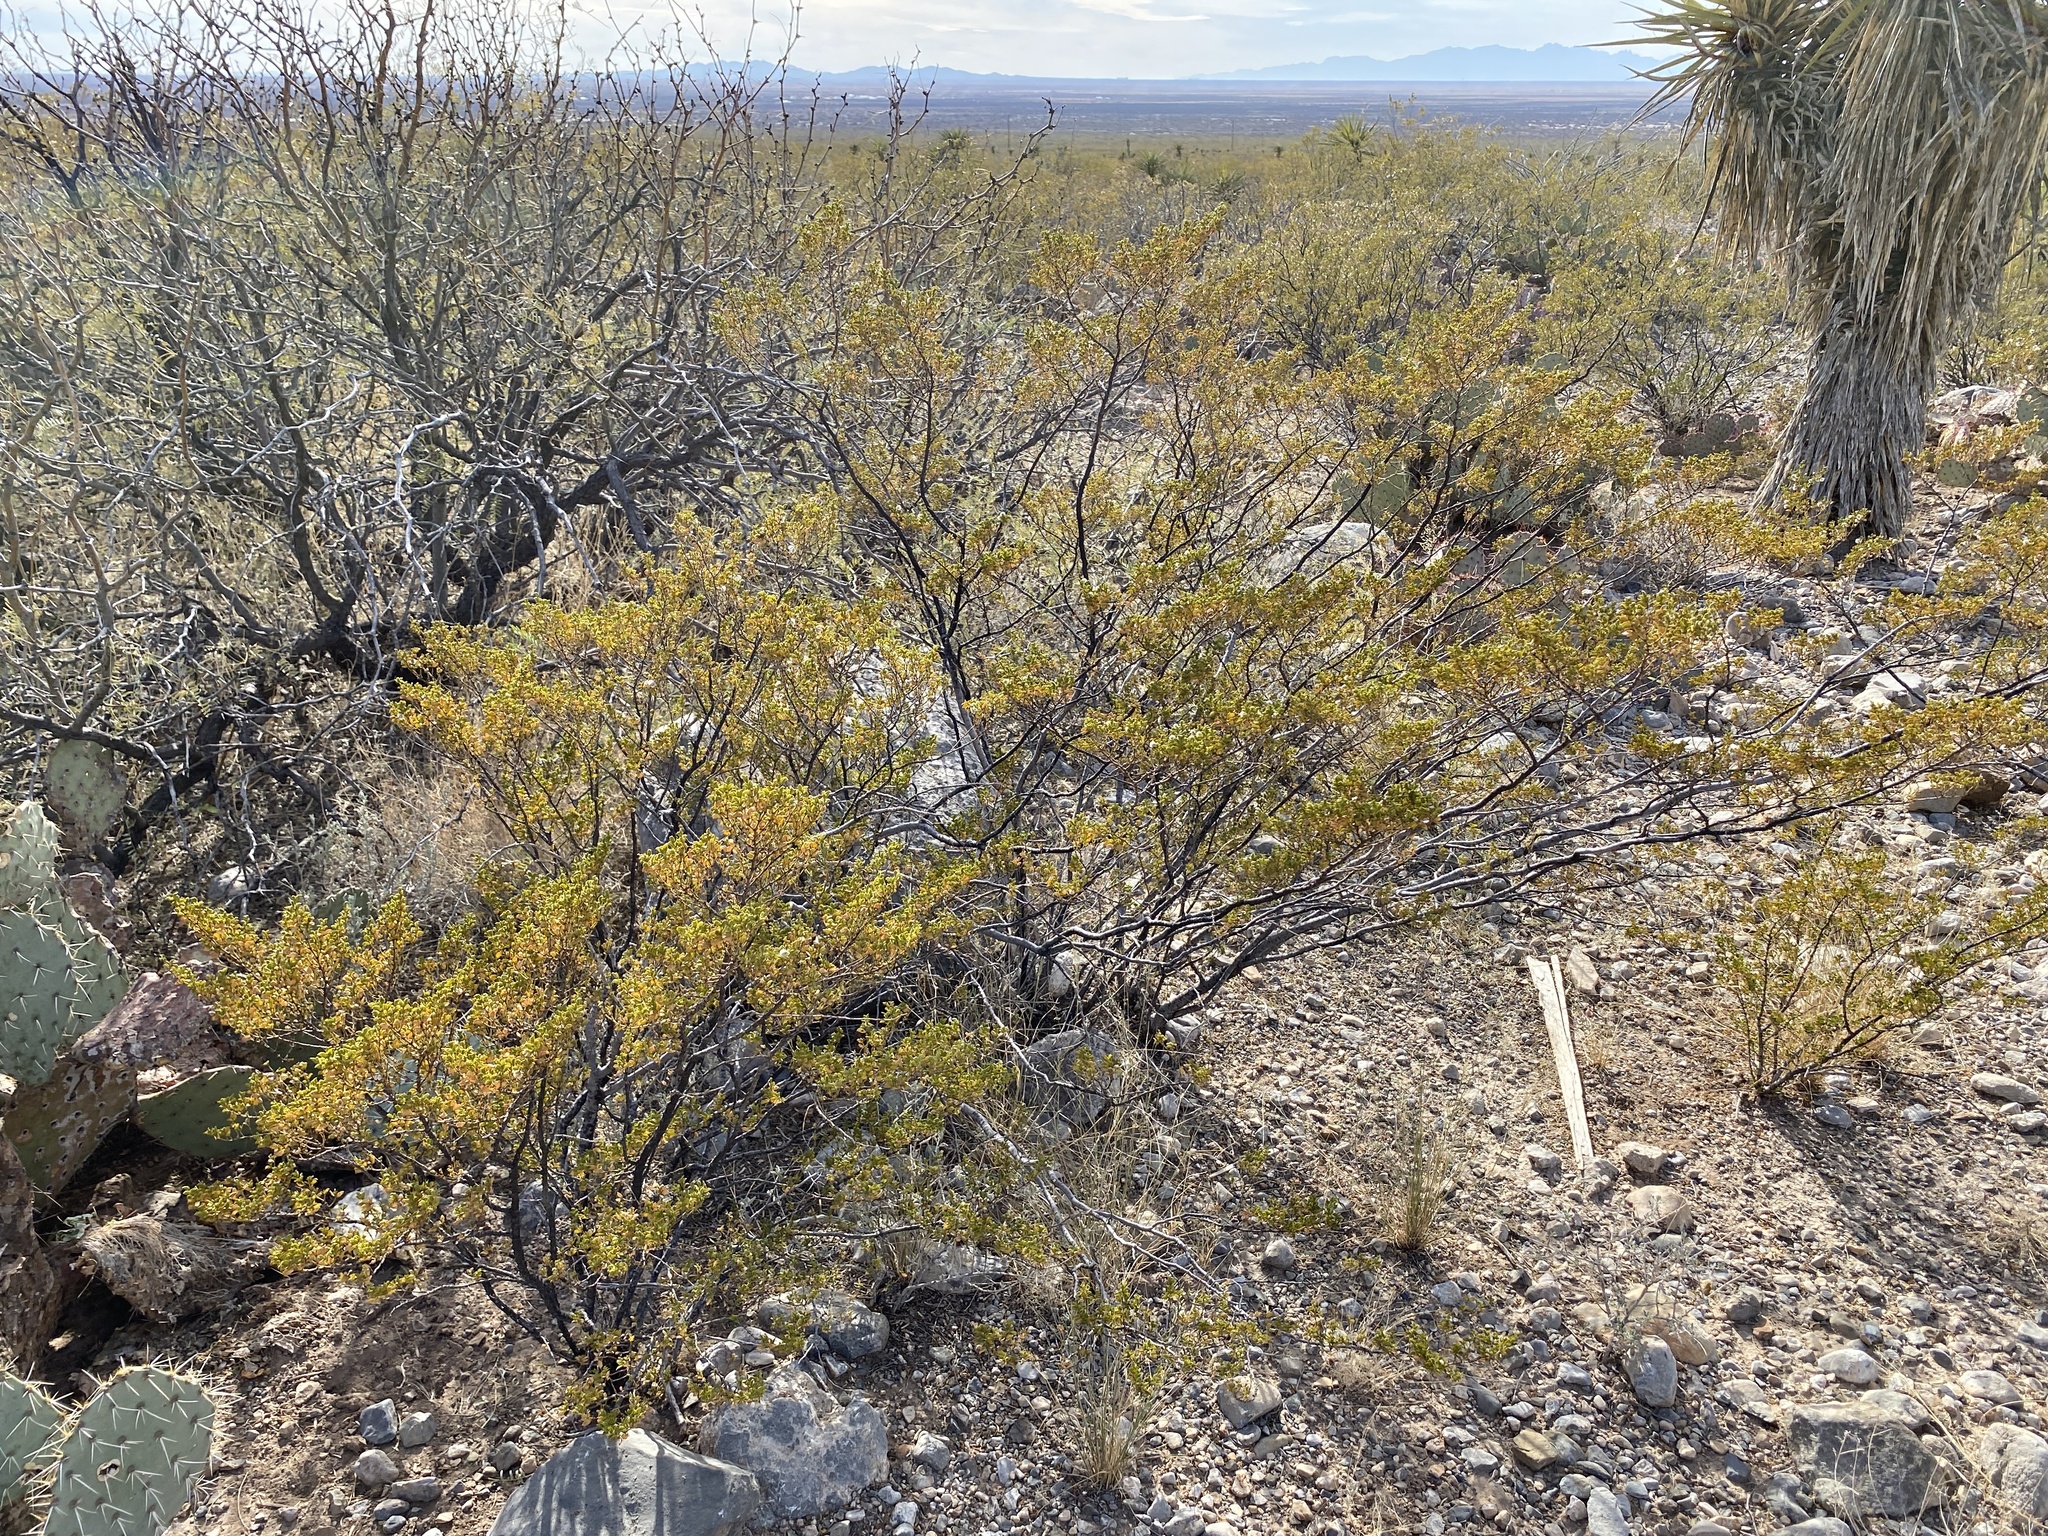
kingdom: Plantae
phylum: Tracheophyta
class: Magnoliopsida
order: Zygophyllales
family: Zygophyllaceae
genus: Larrea
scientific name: Larrea tridentata
